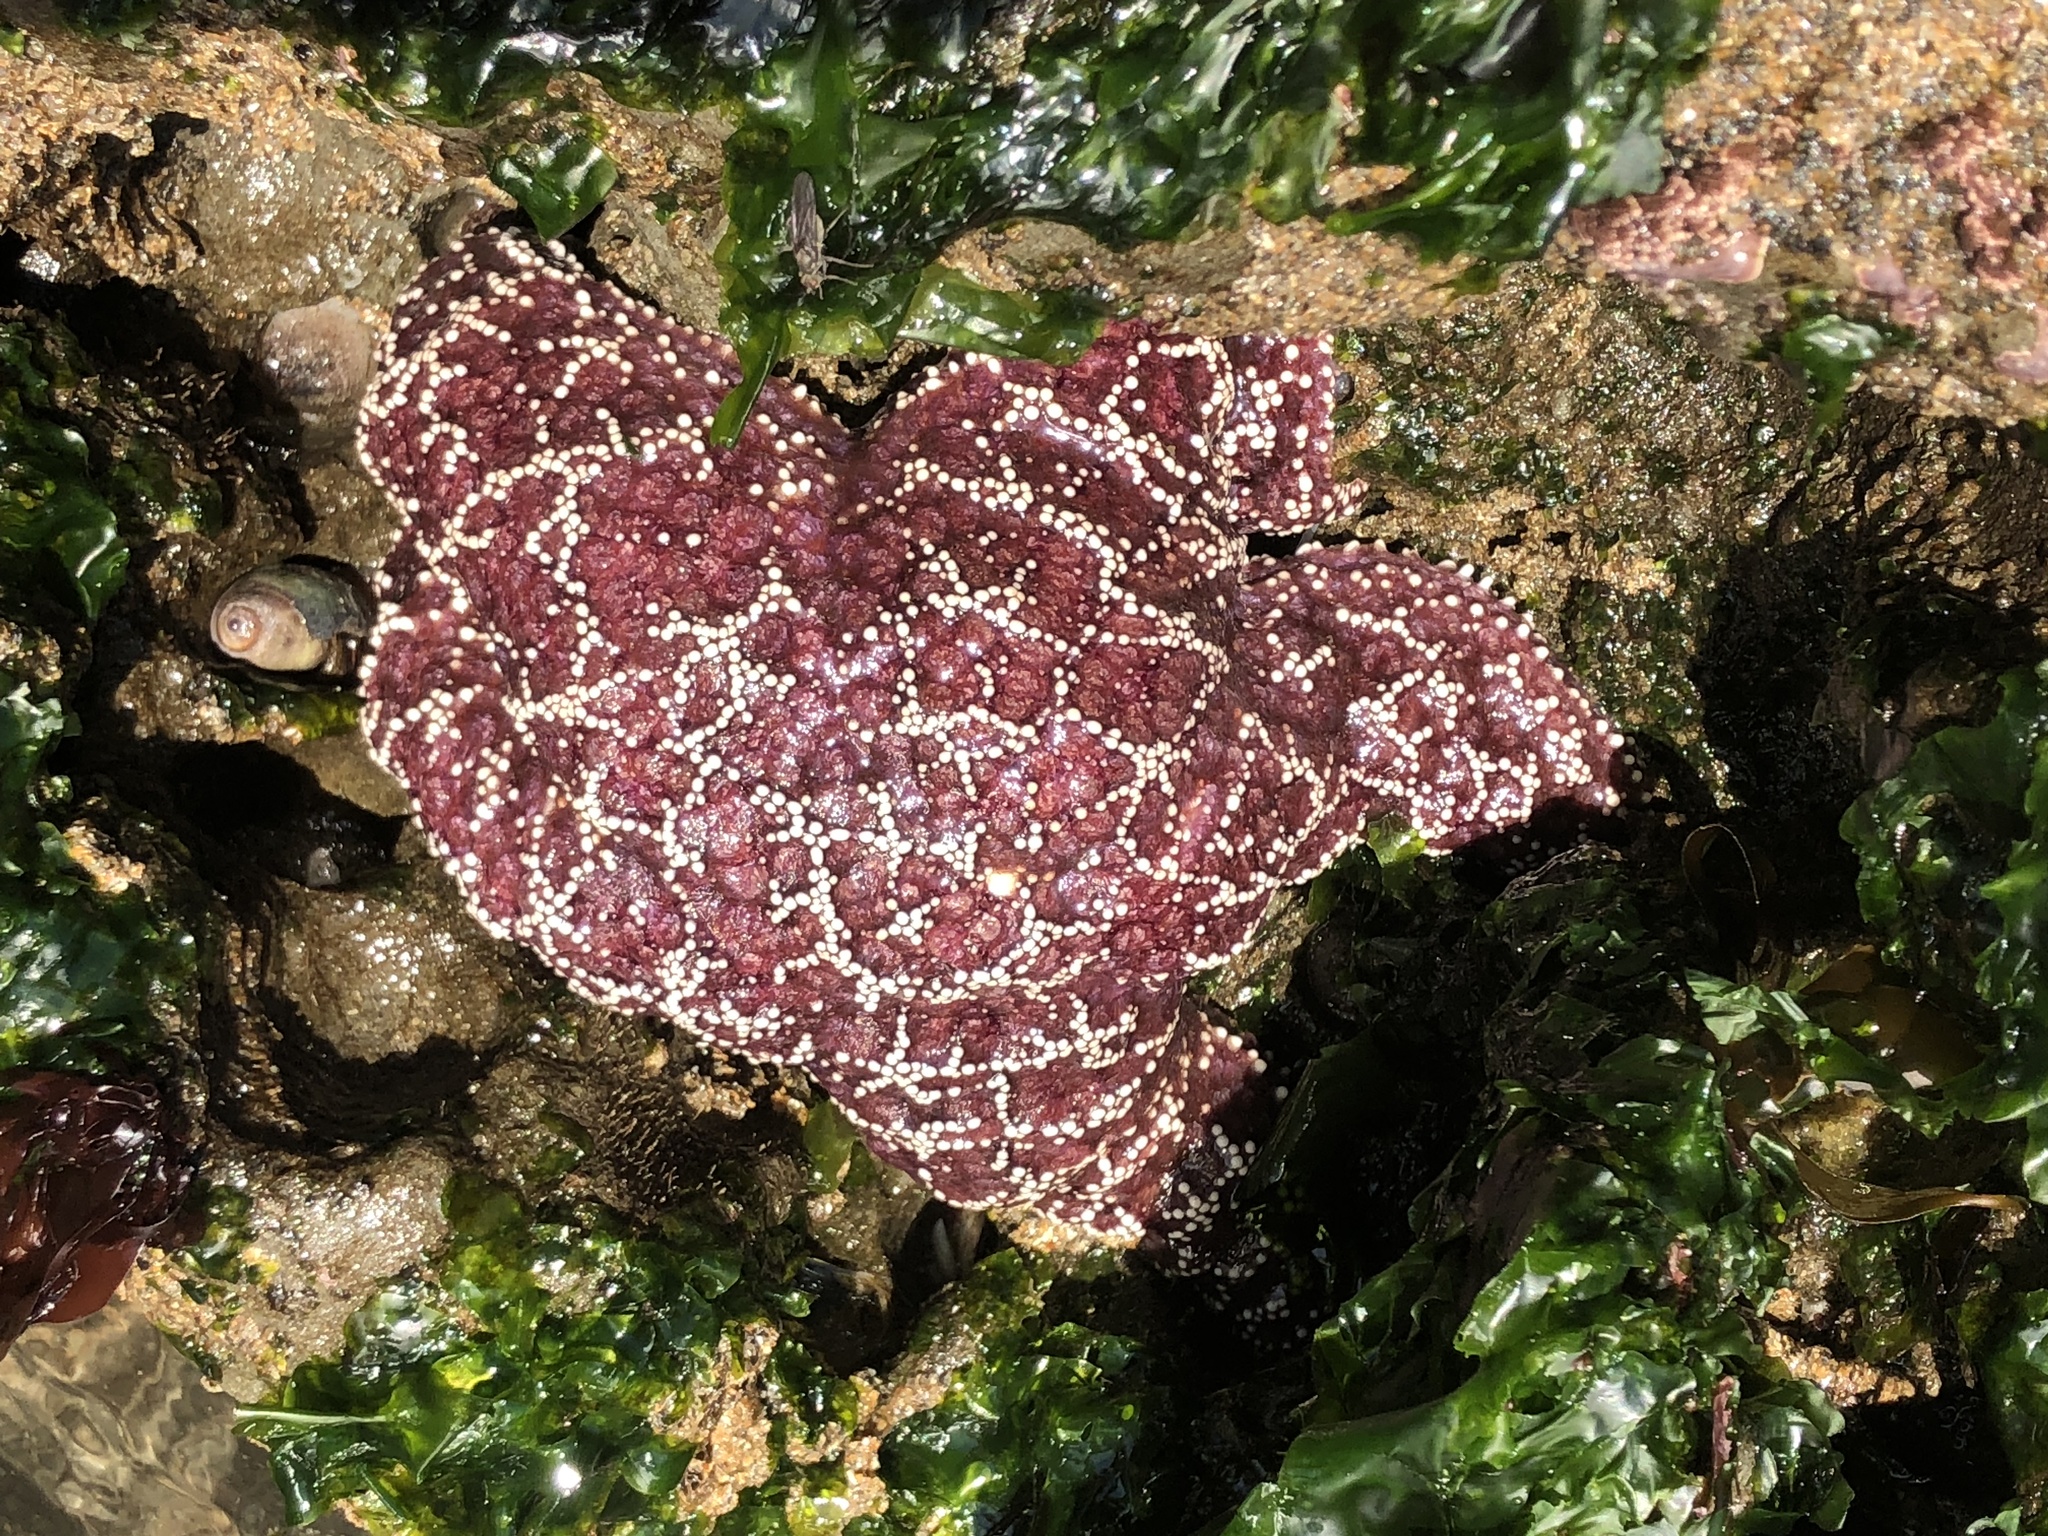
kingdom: Animalia
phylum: Echinodermata
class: Asteroidea
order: Forcipulatida
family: Asteriidae
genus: Pisaster
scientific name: Pisaster ochraceus
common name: Ochre stars
